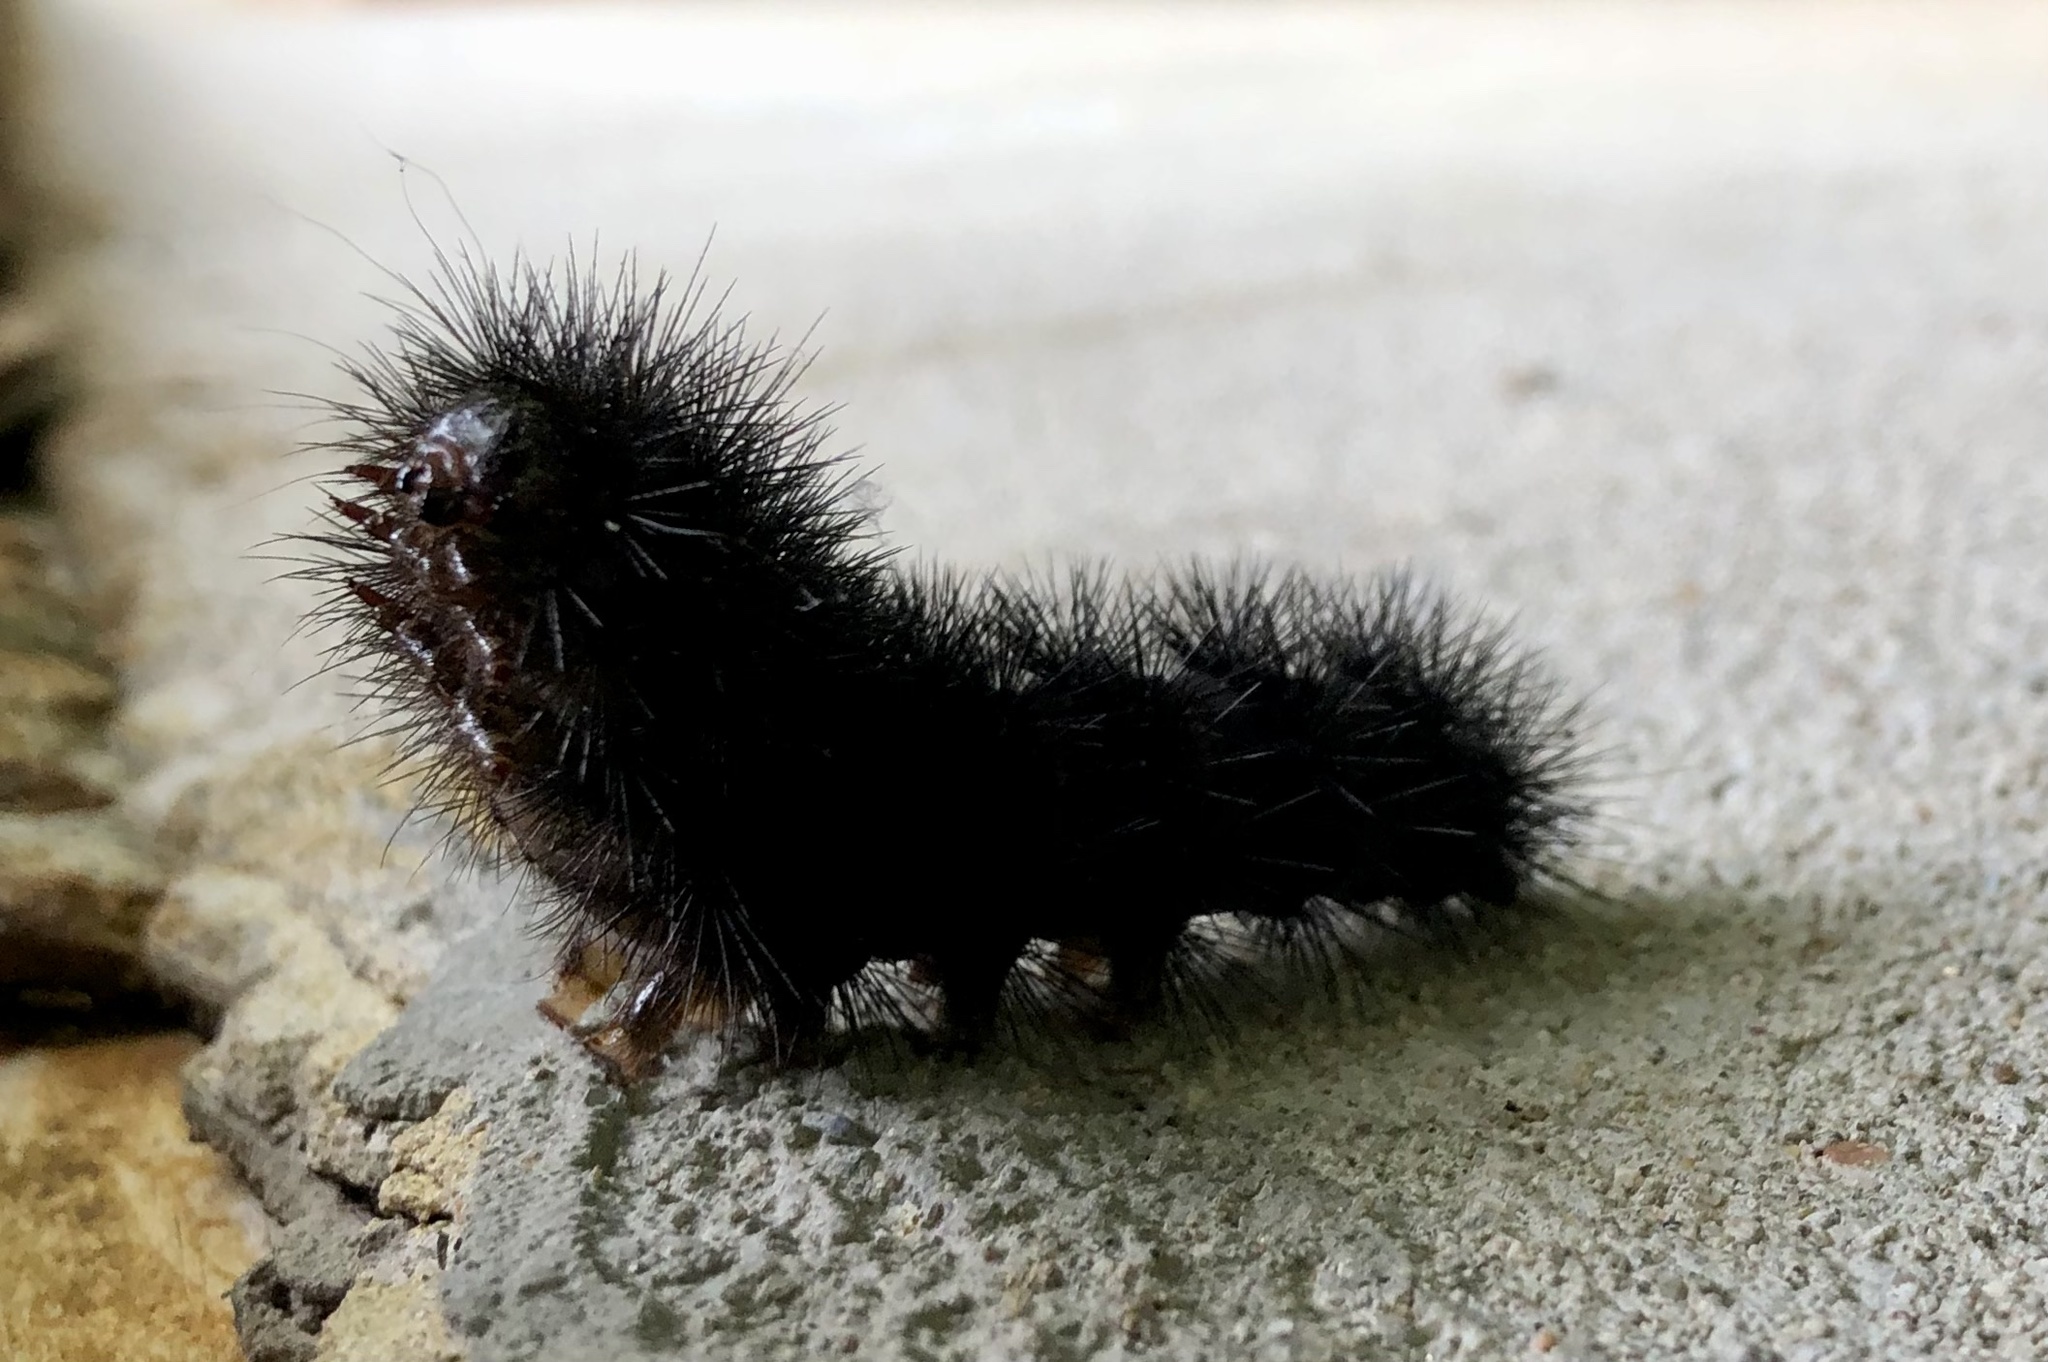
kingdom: Animalia
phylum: Arthropoda
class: Insecta
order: Lepidoptera
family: Erebidae
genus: Hypercompe
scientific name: Hypercompe scribonia
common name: Giant leopard moth
